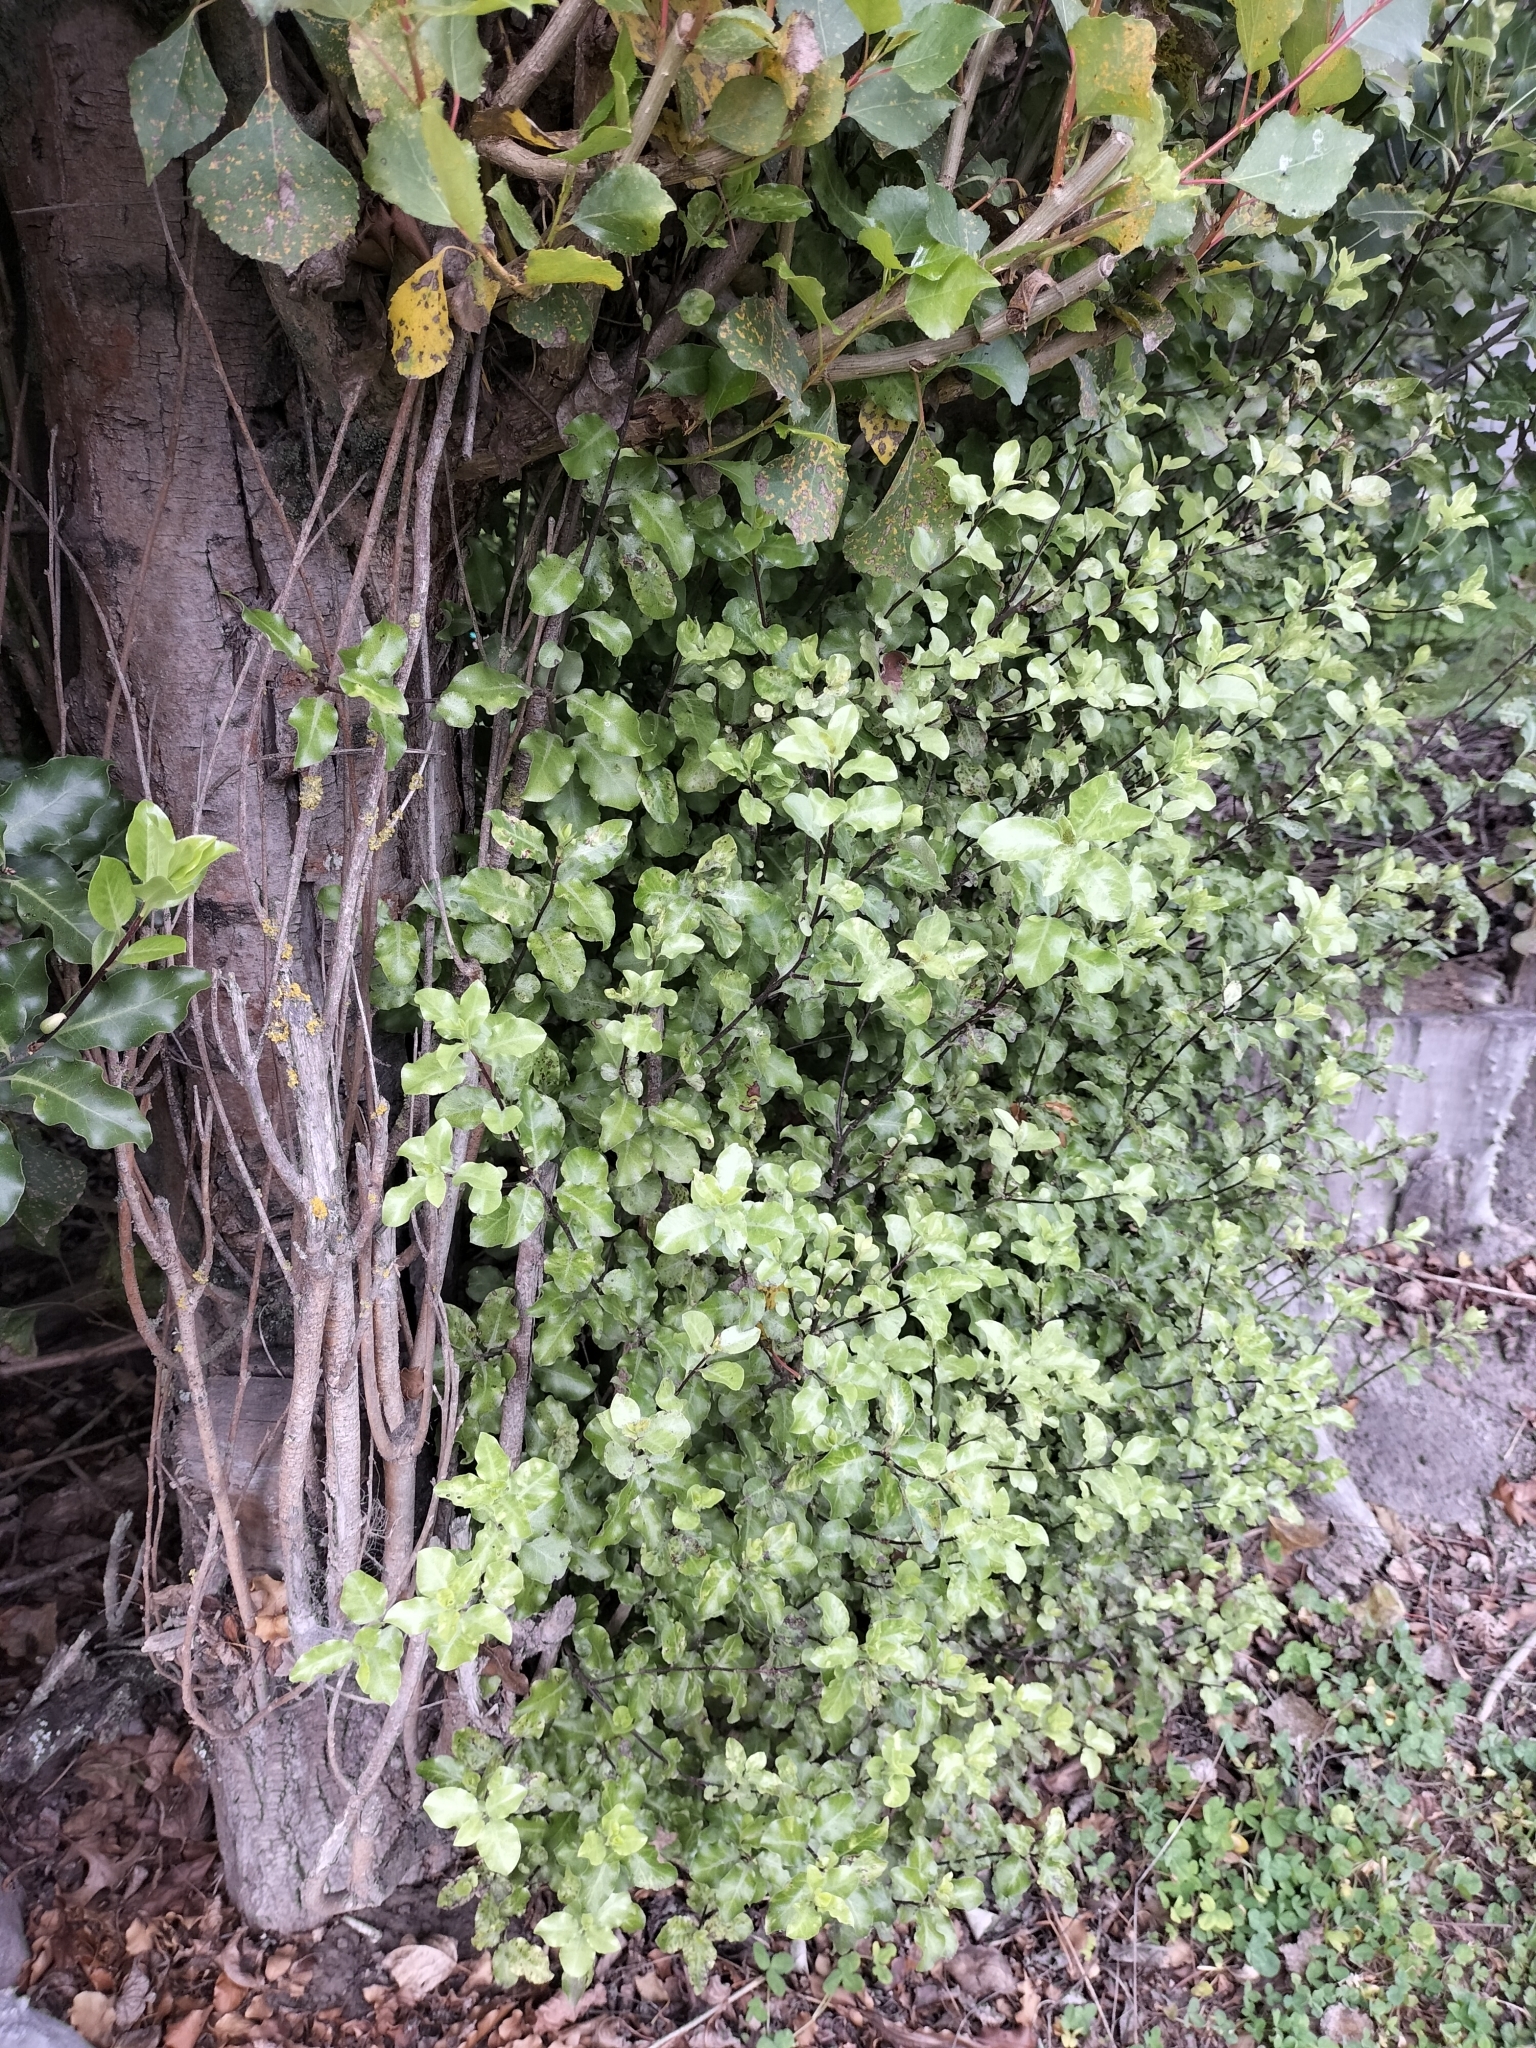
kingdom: Plantae
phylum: Tracheophyta
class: Magnoliopsida
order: Apiales
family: Pittosporaceae
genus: Pittosporum
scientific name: Pittosporum tenuifolium
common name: Kohuhu
